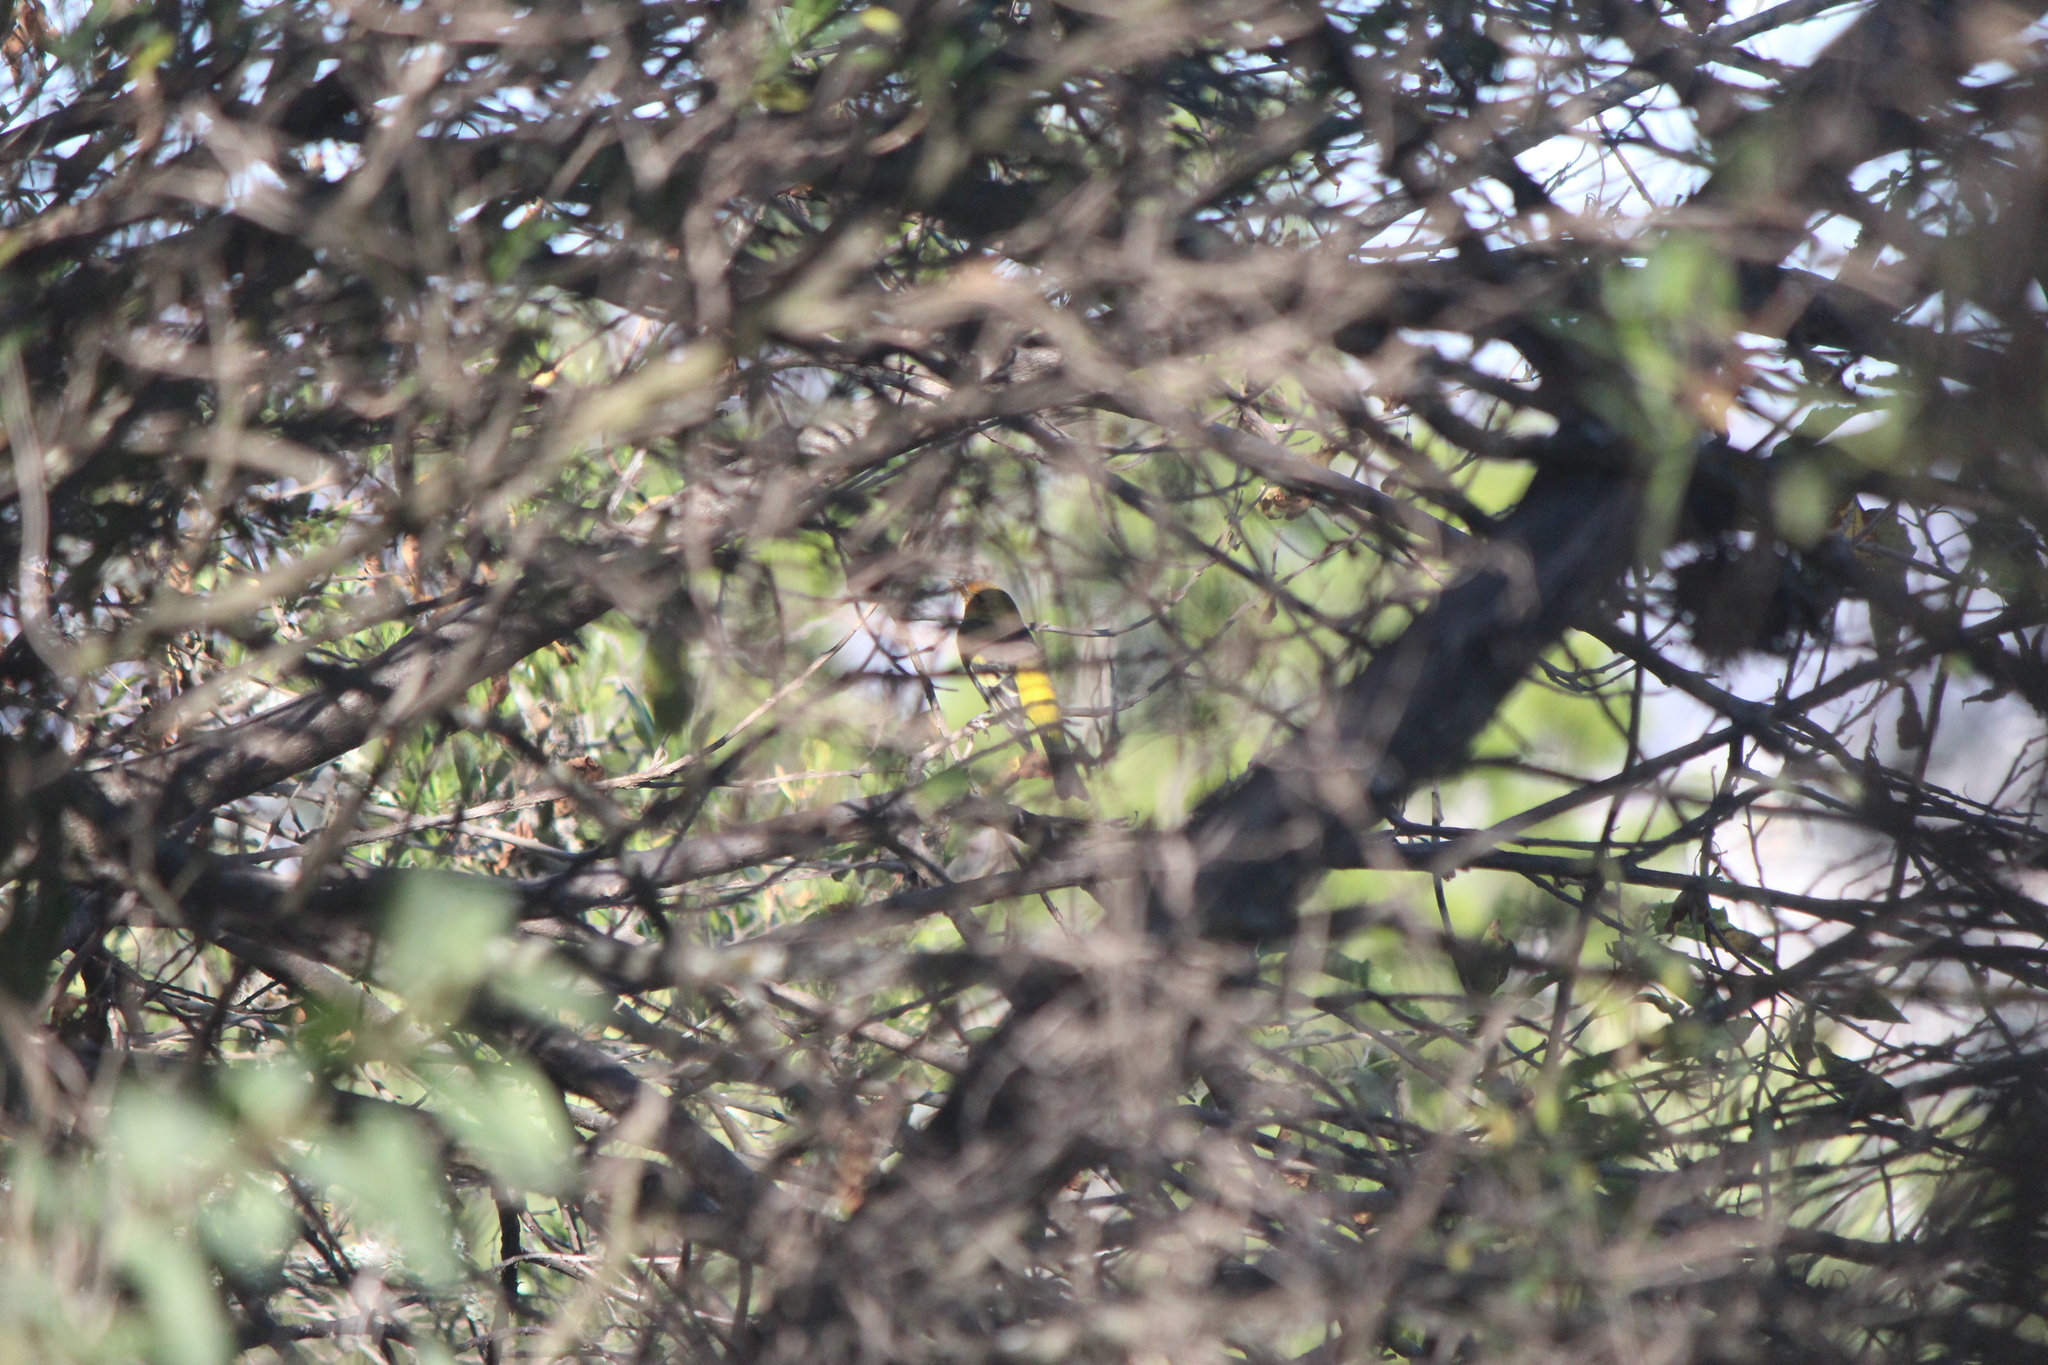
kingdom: Animalia
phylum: Chordata
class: Aves
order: Passeriformes
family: Cardinalidae
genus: Piranga
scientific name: Piranga ludoviciana
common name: Western tanager
